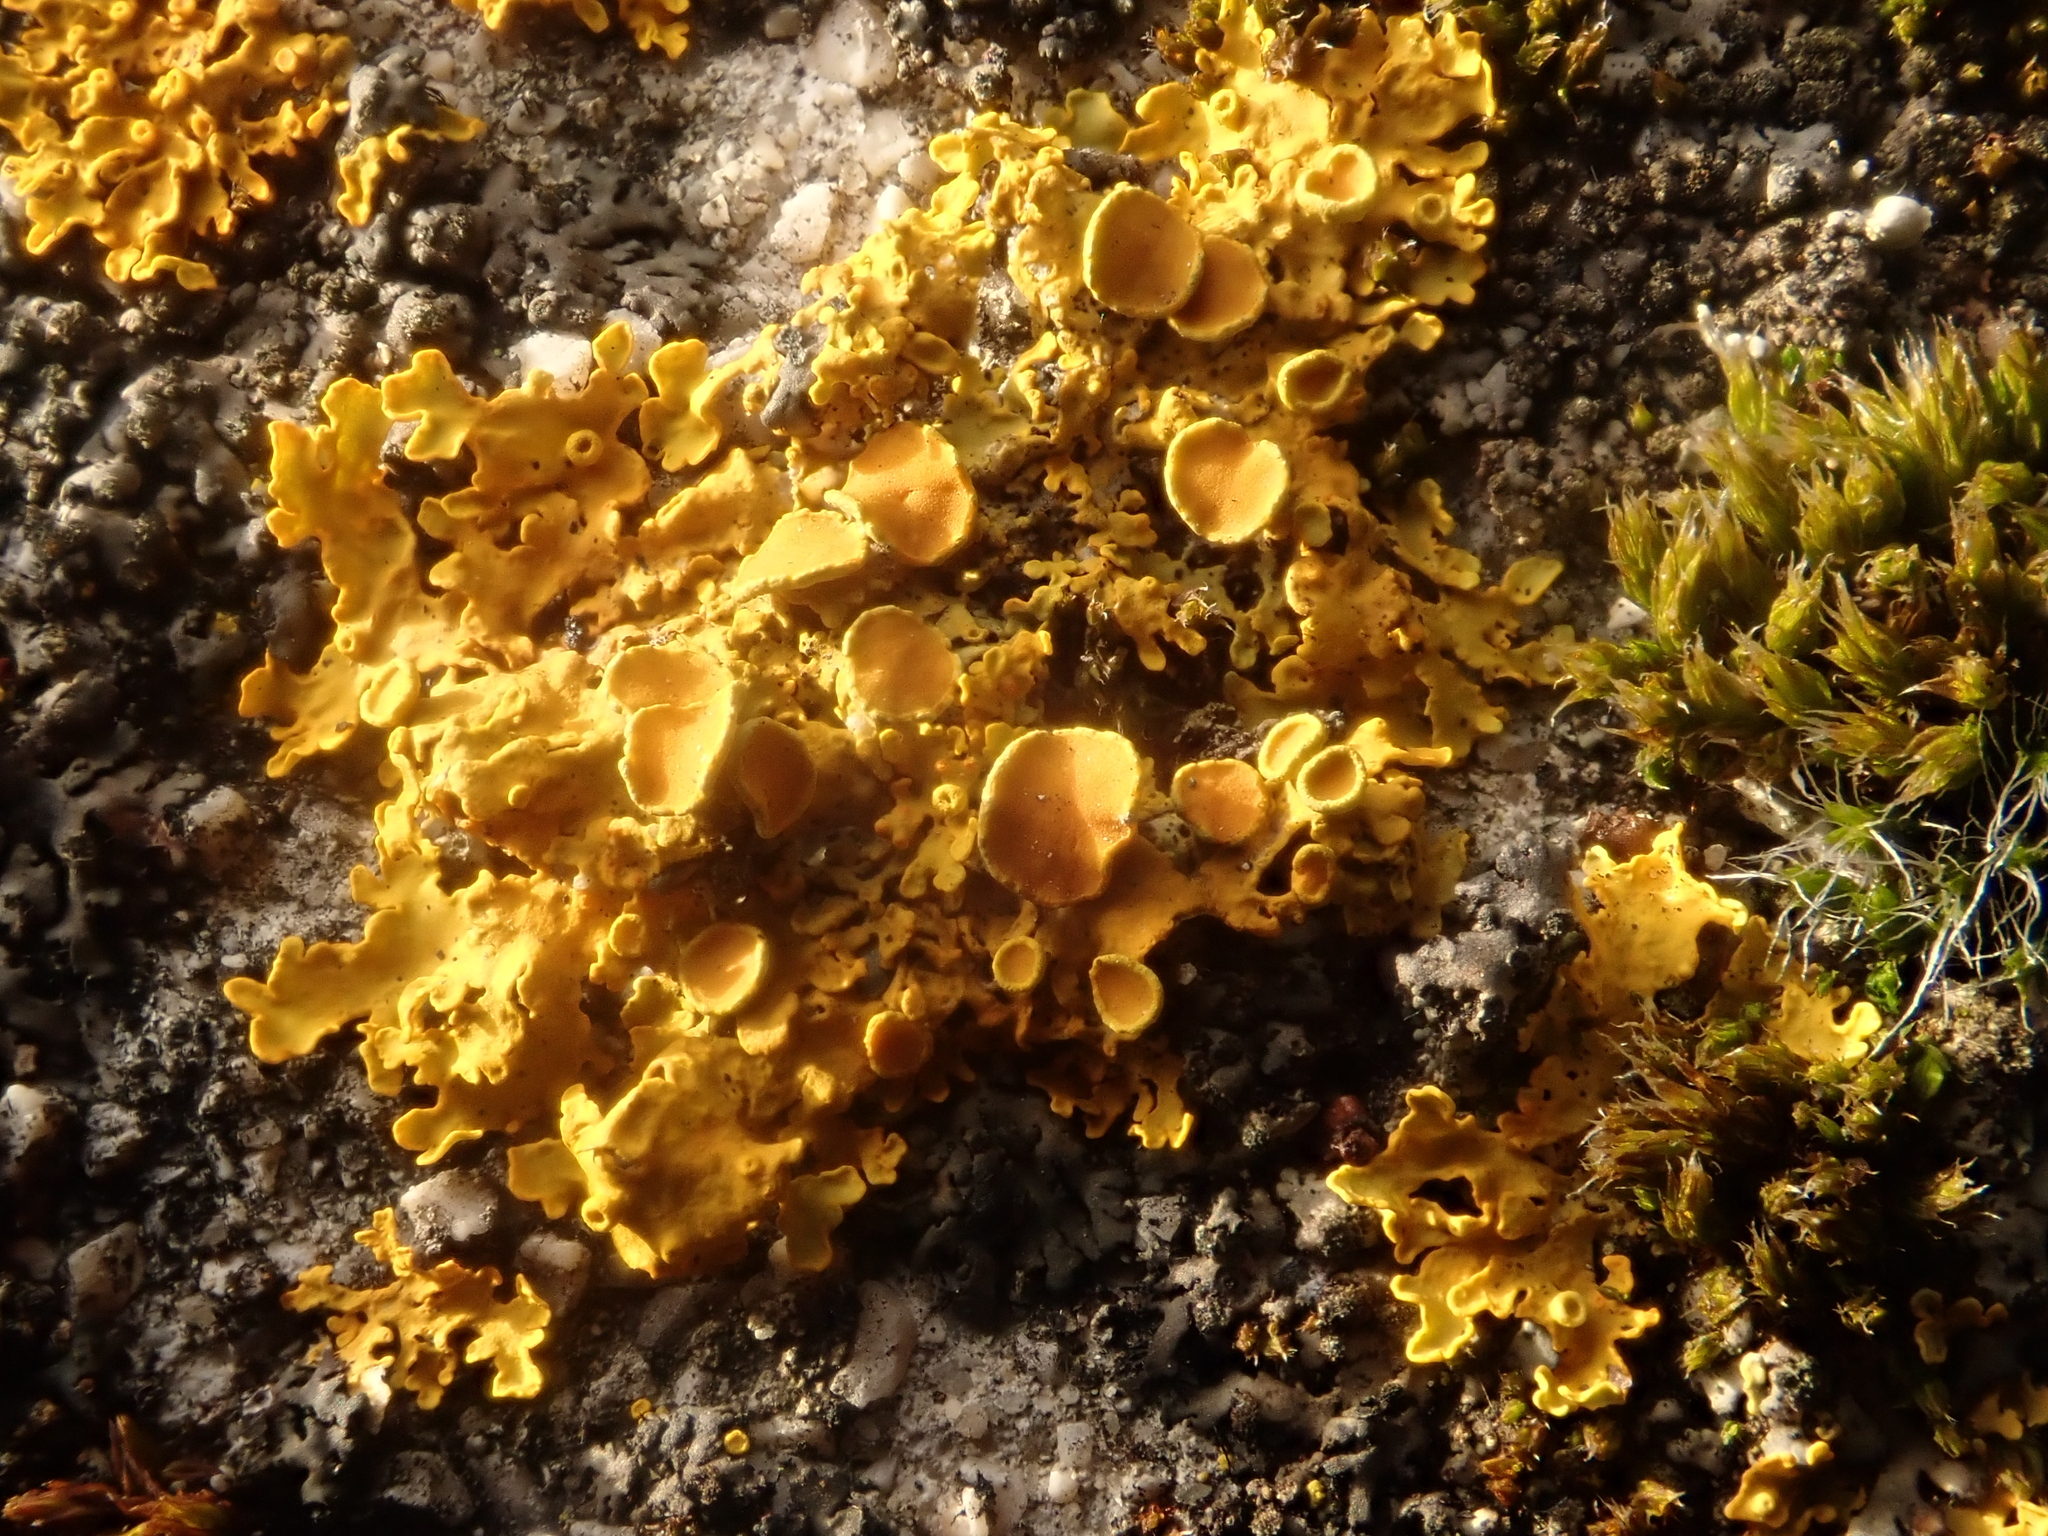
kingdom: Fungi
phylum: Ascomycota
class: Lecanoromycetes
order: Teloschistales
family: Teloschistaceae
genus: Xanthoria
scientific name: Xanthoria parietina
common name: Common orange lichen
